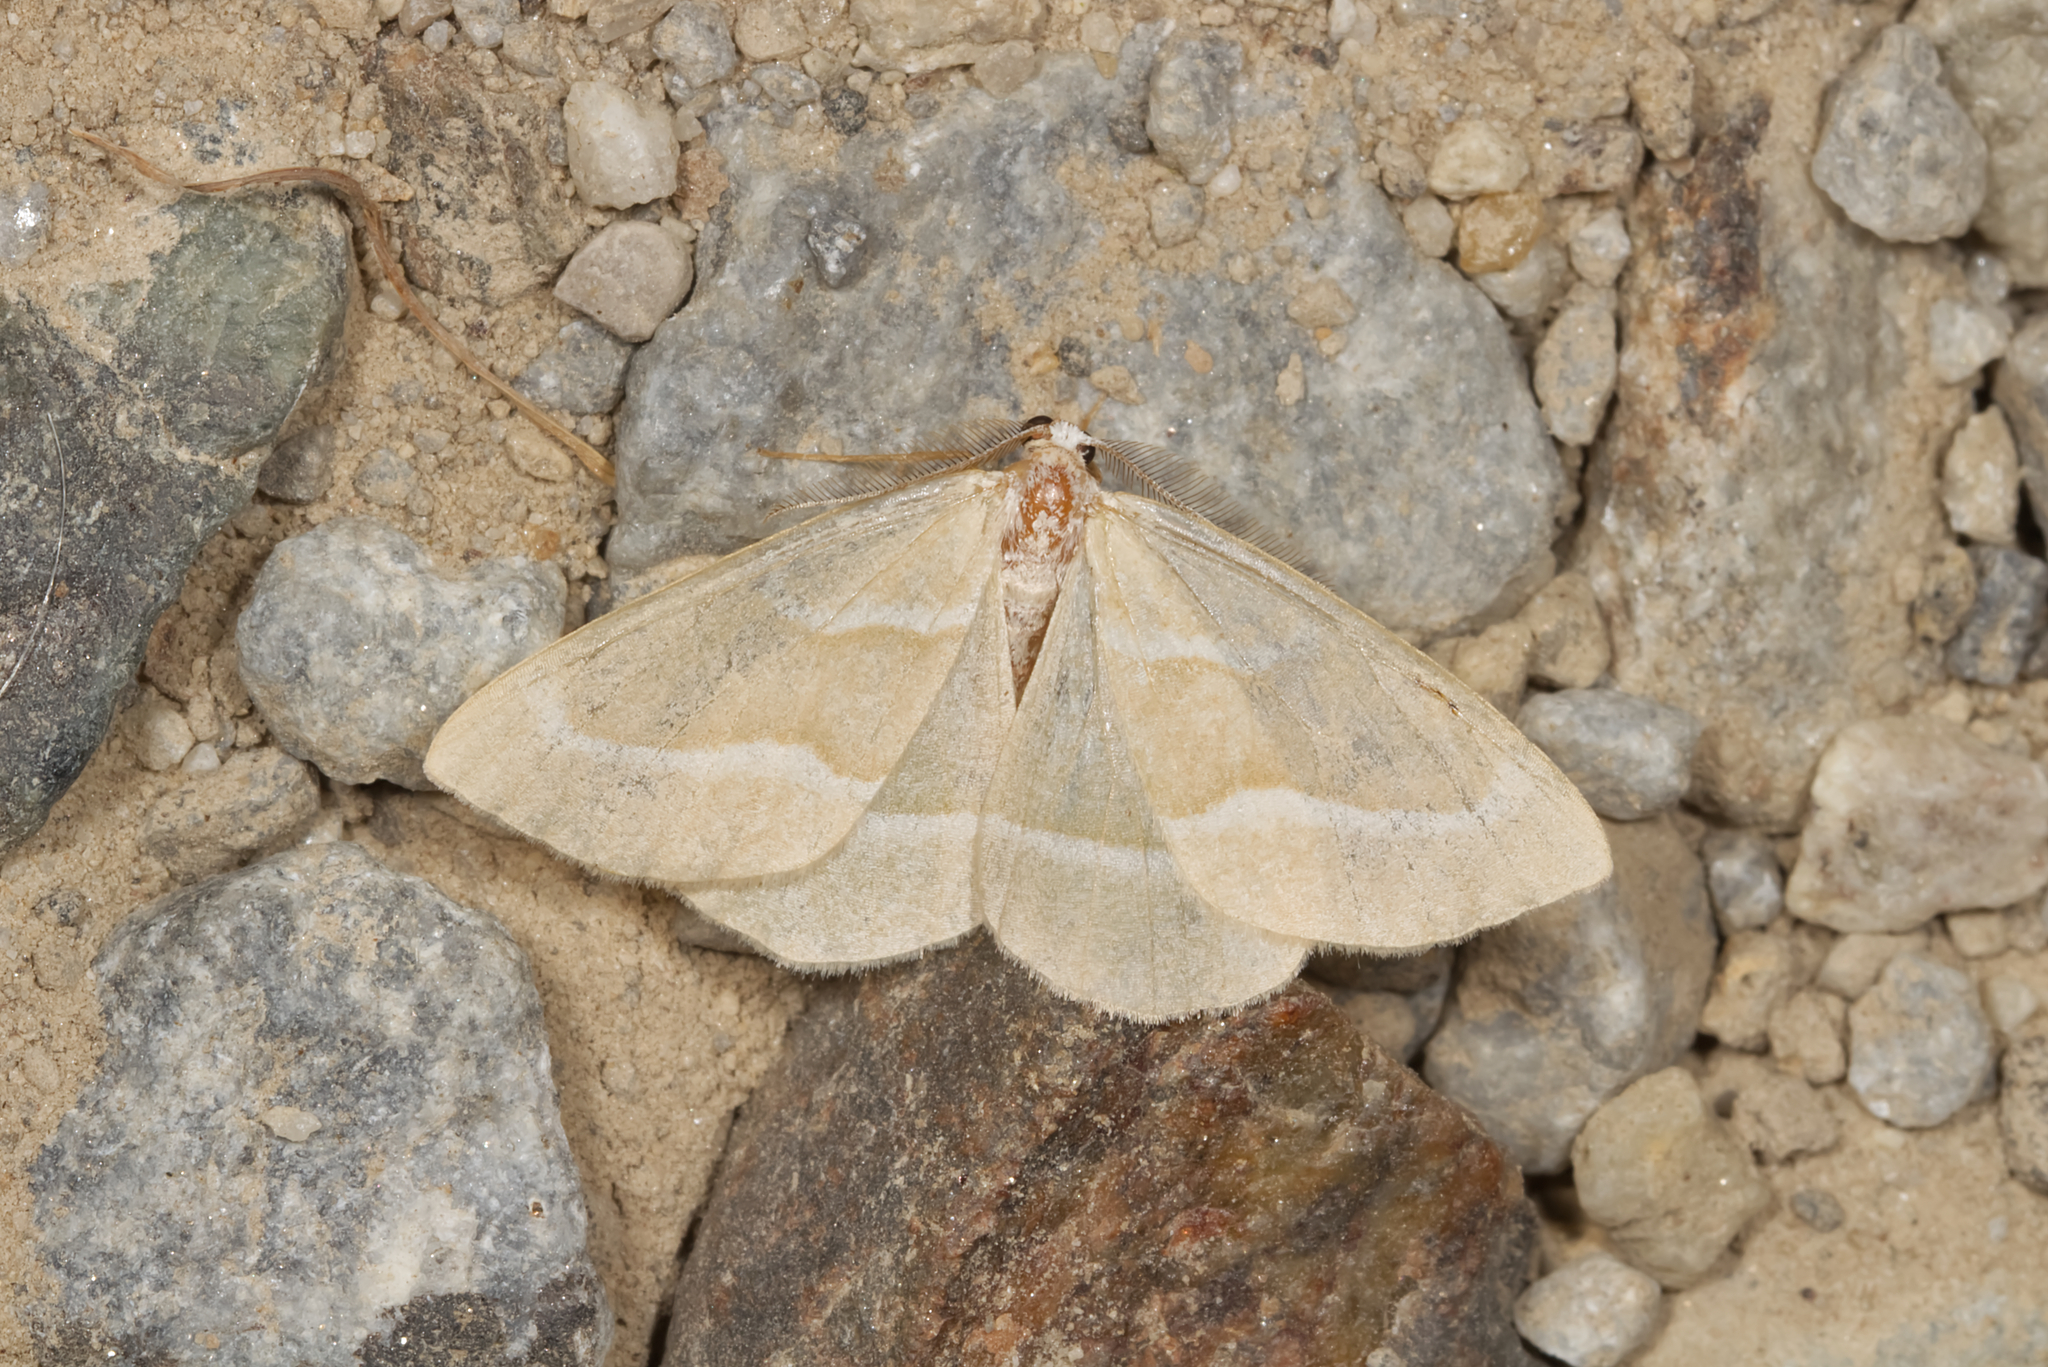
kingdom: Animalia
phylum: Arthropoda
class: Insecta
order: Lepidoptera
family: Geometridae
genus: Hylaea
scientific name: Hylaea fasciaria
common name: Barred red
